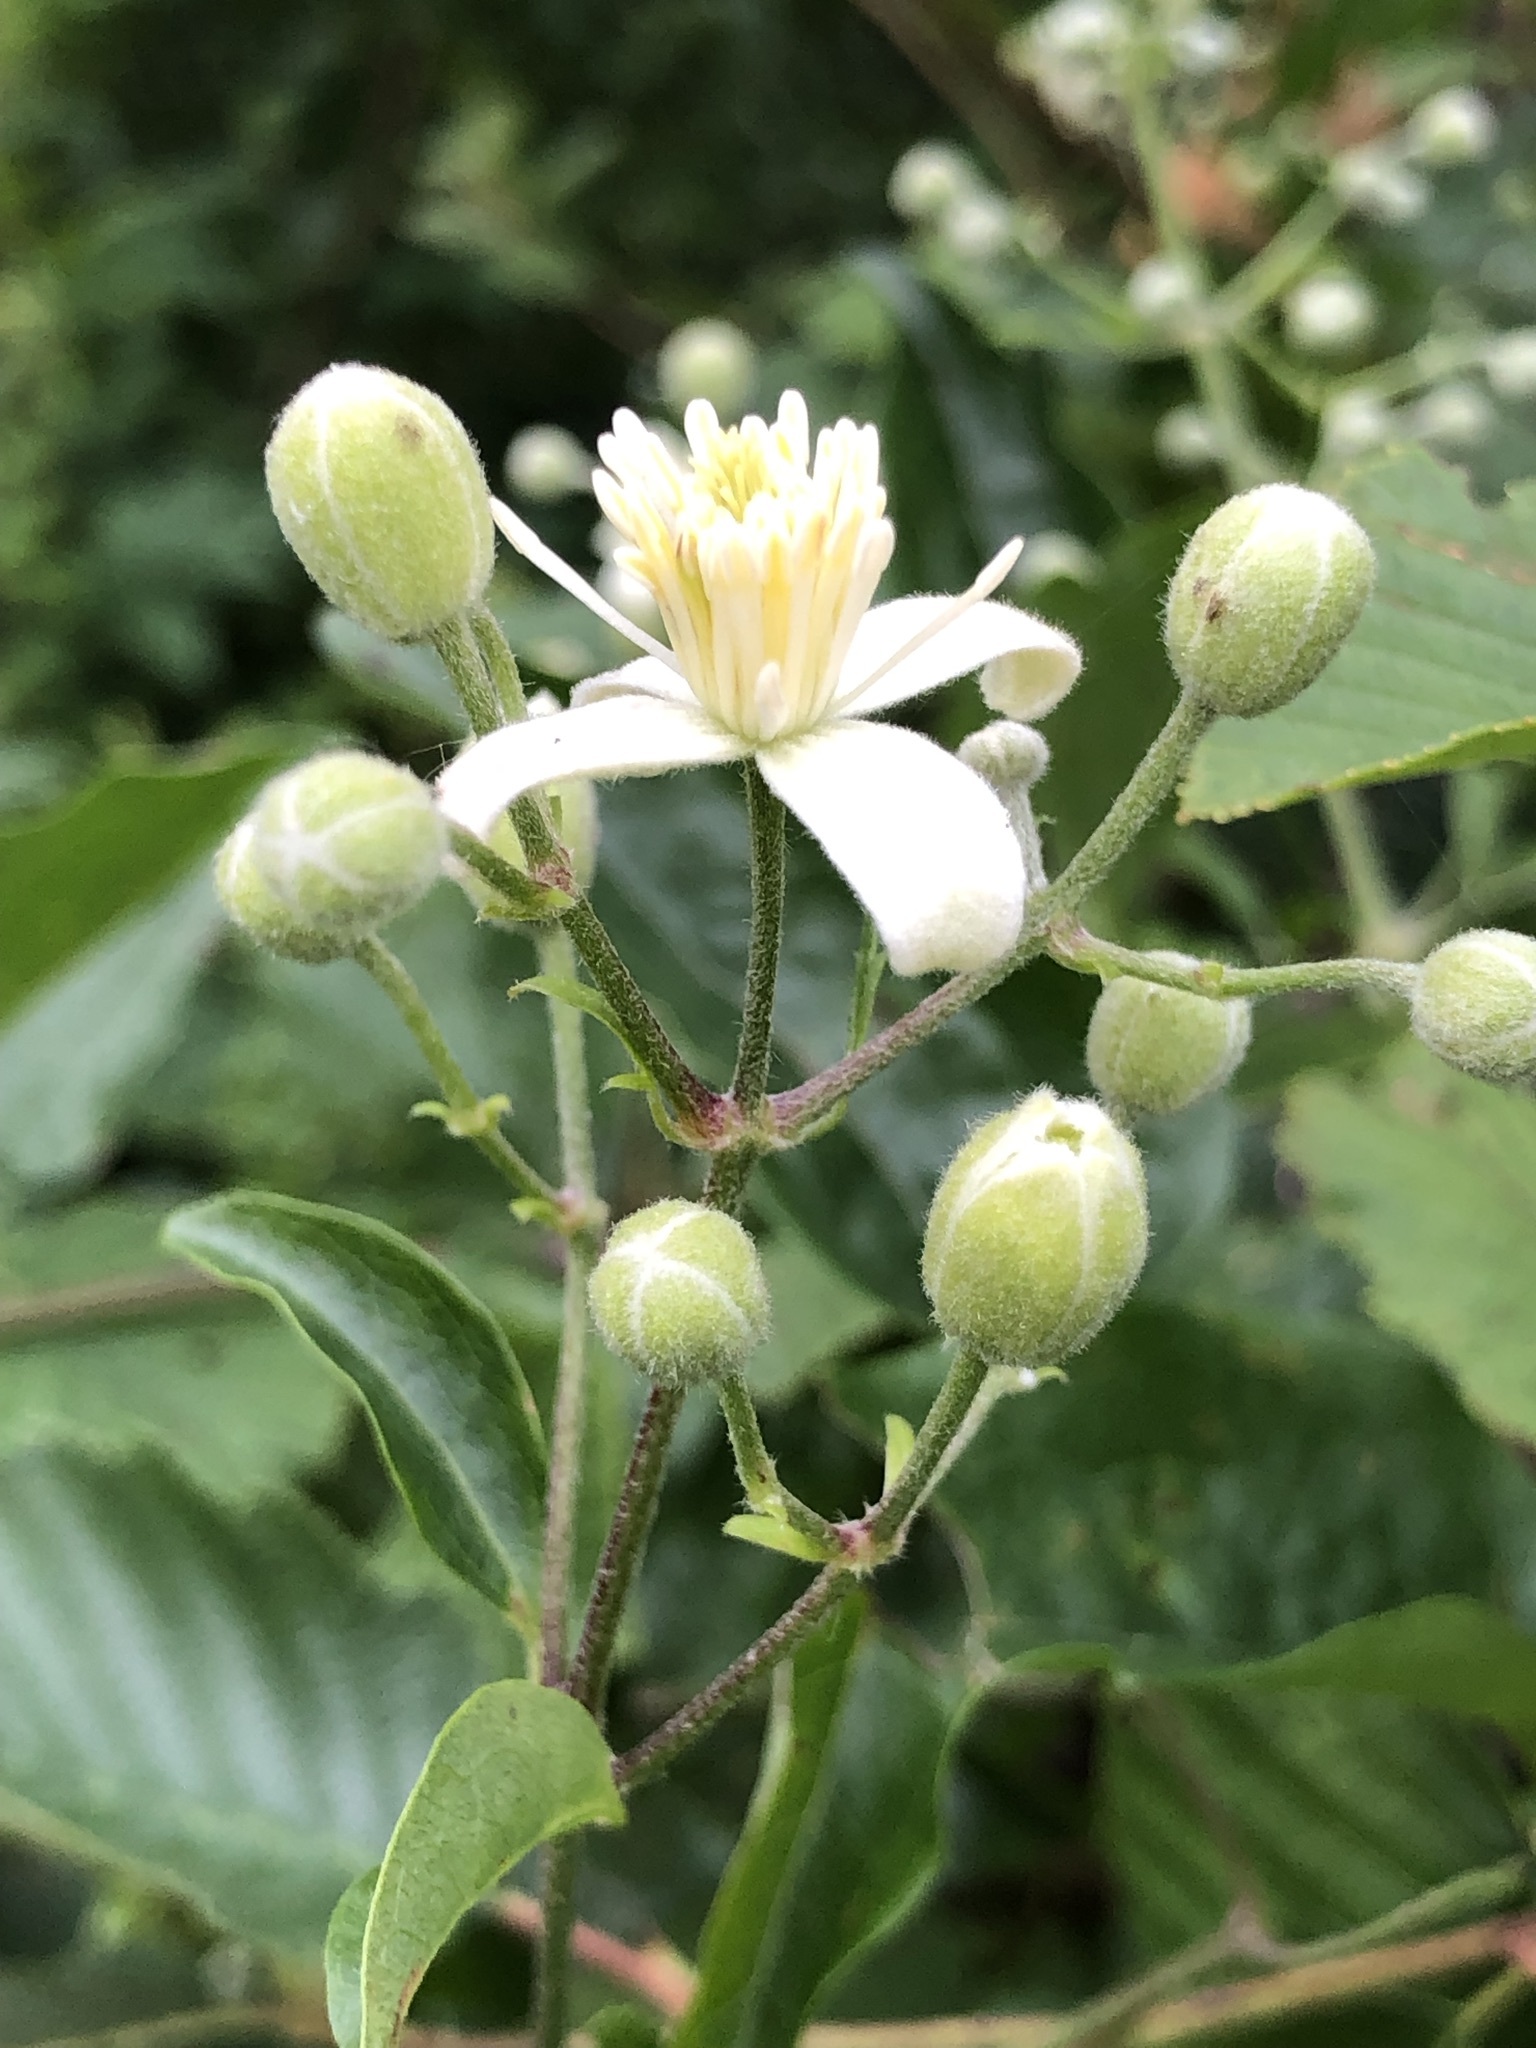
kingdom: Plantae
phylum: Tracheophyta
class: Magnoliopsida
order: Ranunculales
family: Ranunculaceae
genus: Clematis
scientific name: Clematis vitalba
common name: Evergreen clematis
